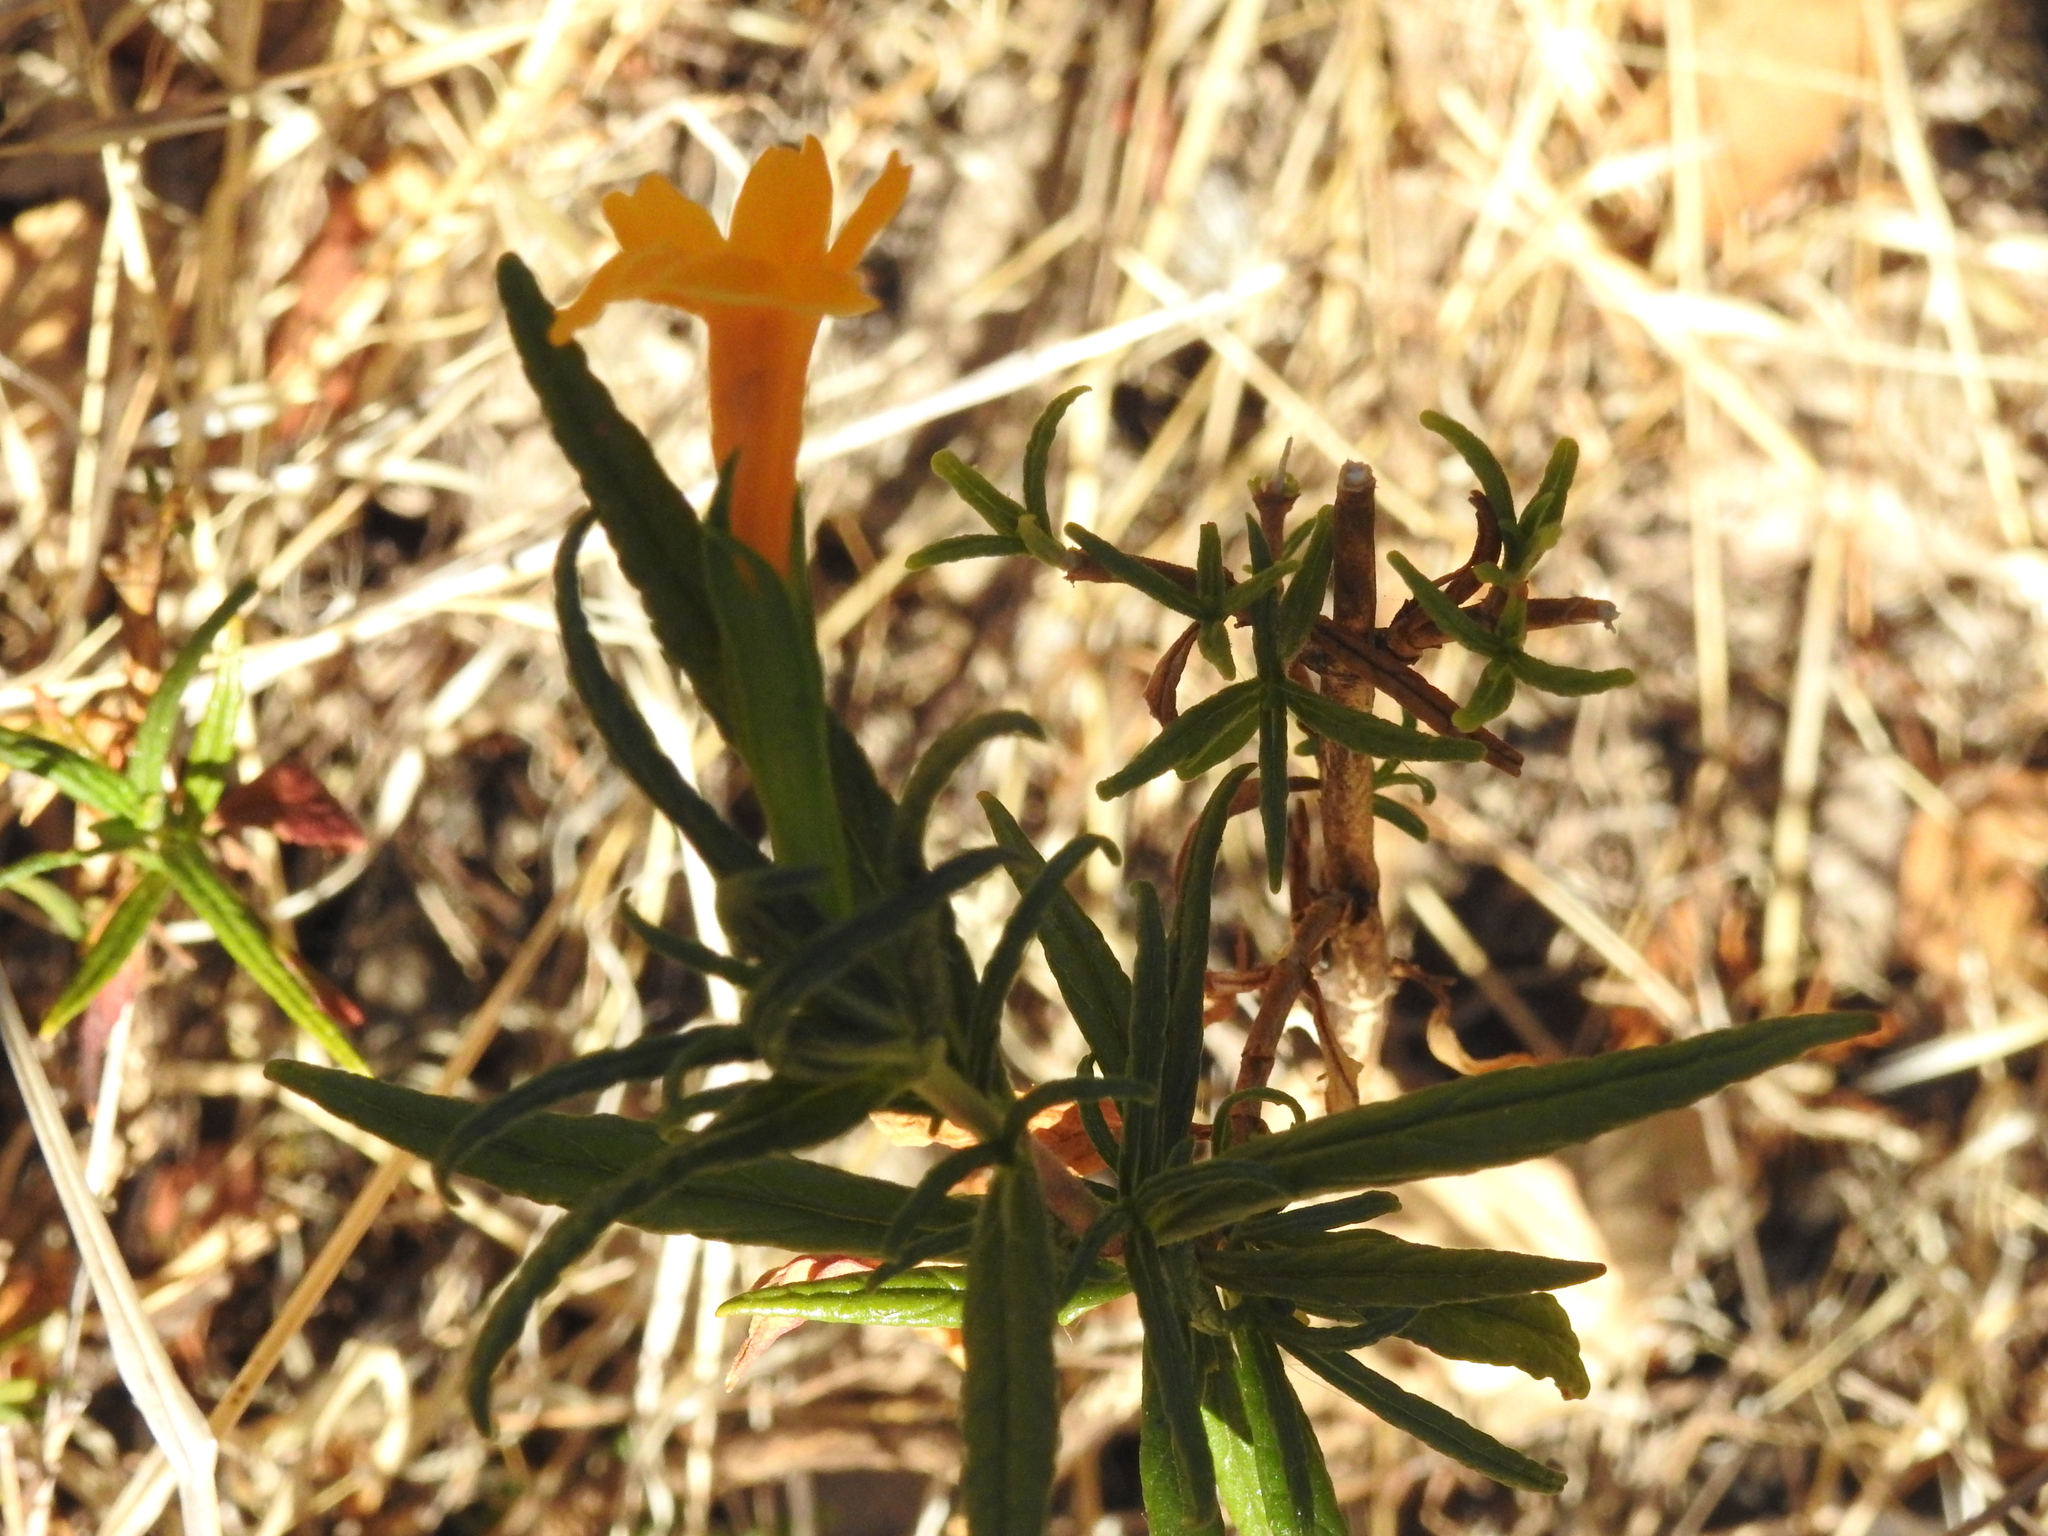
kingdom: Plantae
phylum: Tracheophyta
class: Magnoliopsida
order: Lamiales
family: Phrymaceae
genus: Diplacus
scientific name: Diplacus aurantiacus
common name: Bush monkey-flower
